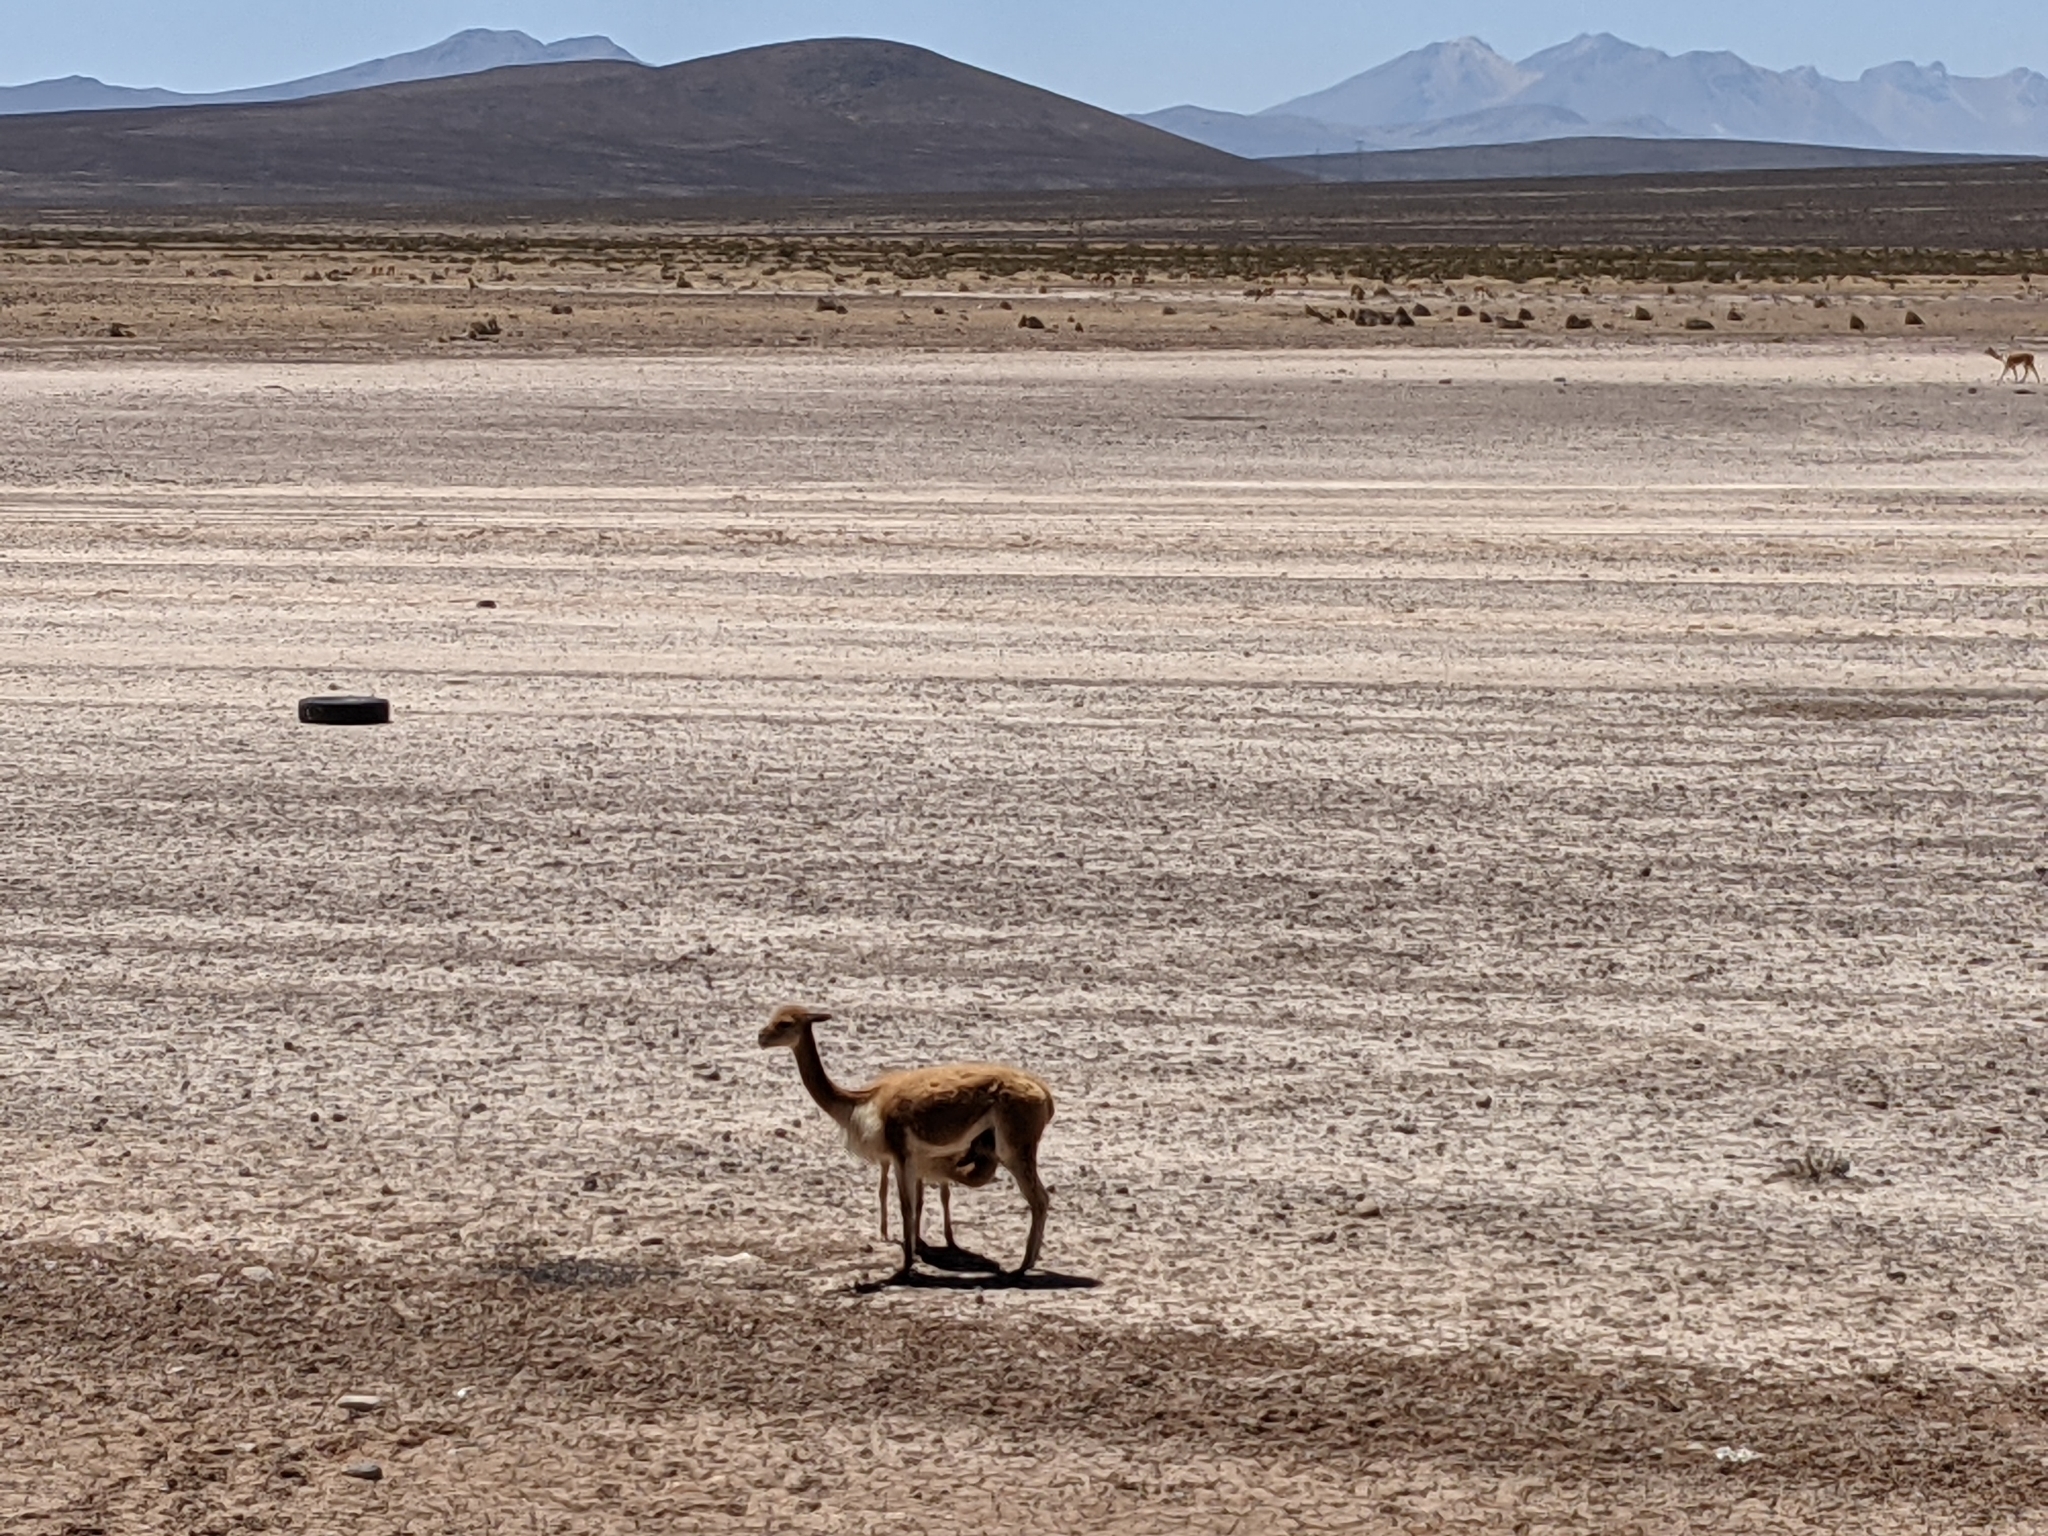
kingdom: Animalia
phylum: Chordata
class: Mammalia
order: Artiodactyla
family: Camelidae
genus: Vicugna
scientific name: Vicugna vicugna
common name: Vicugna
